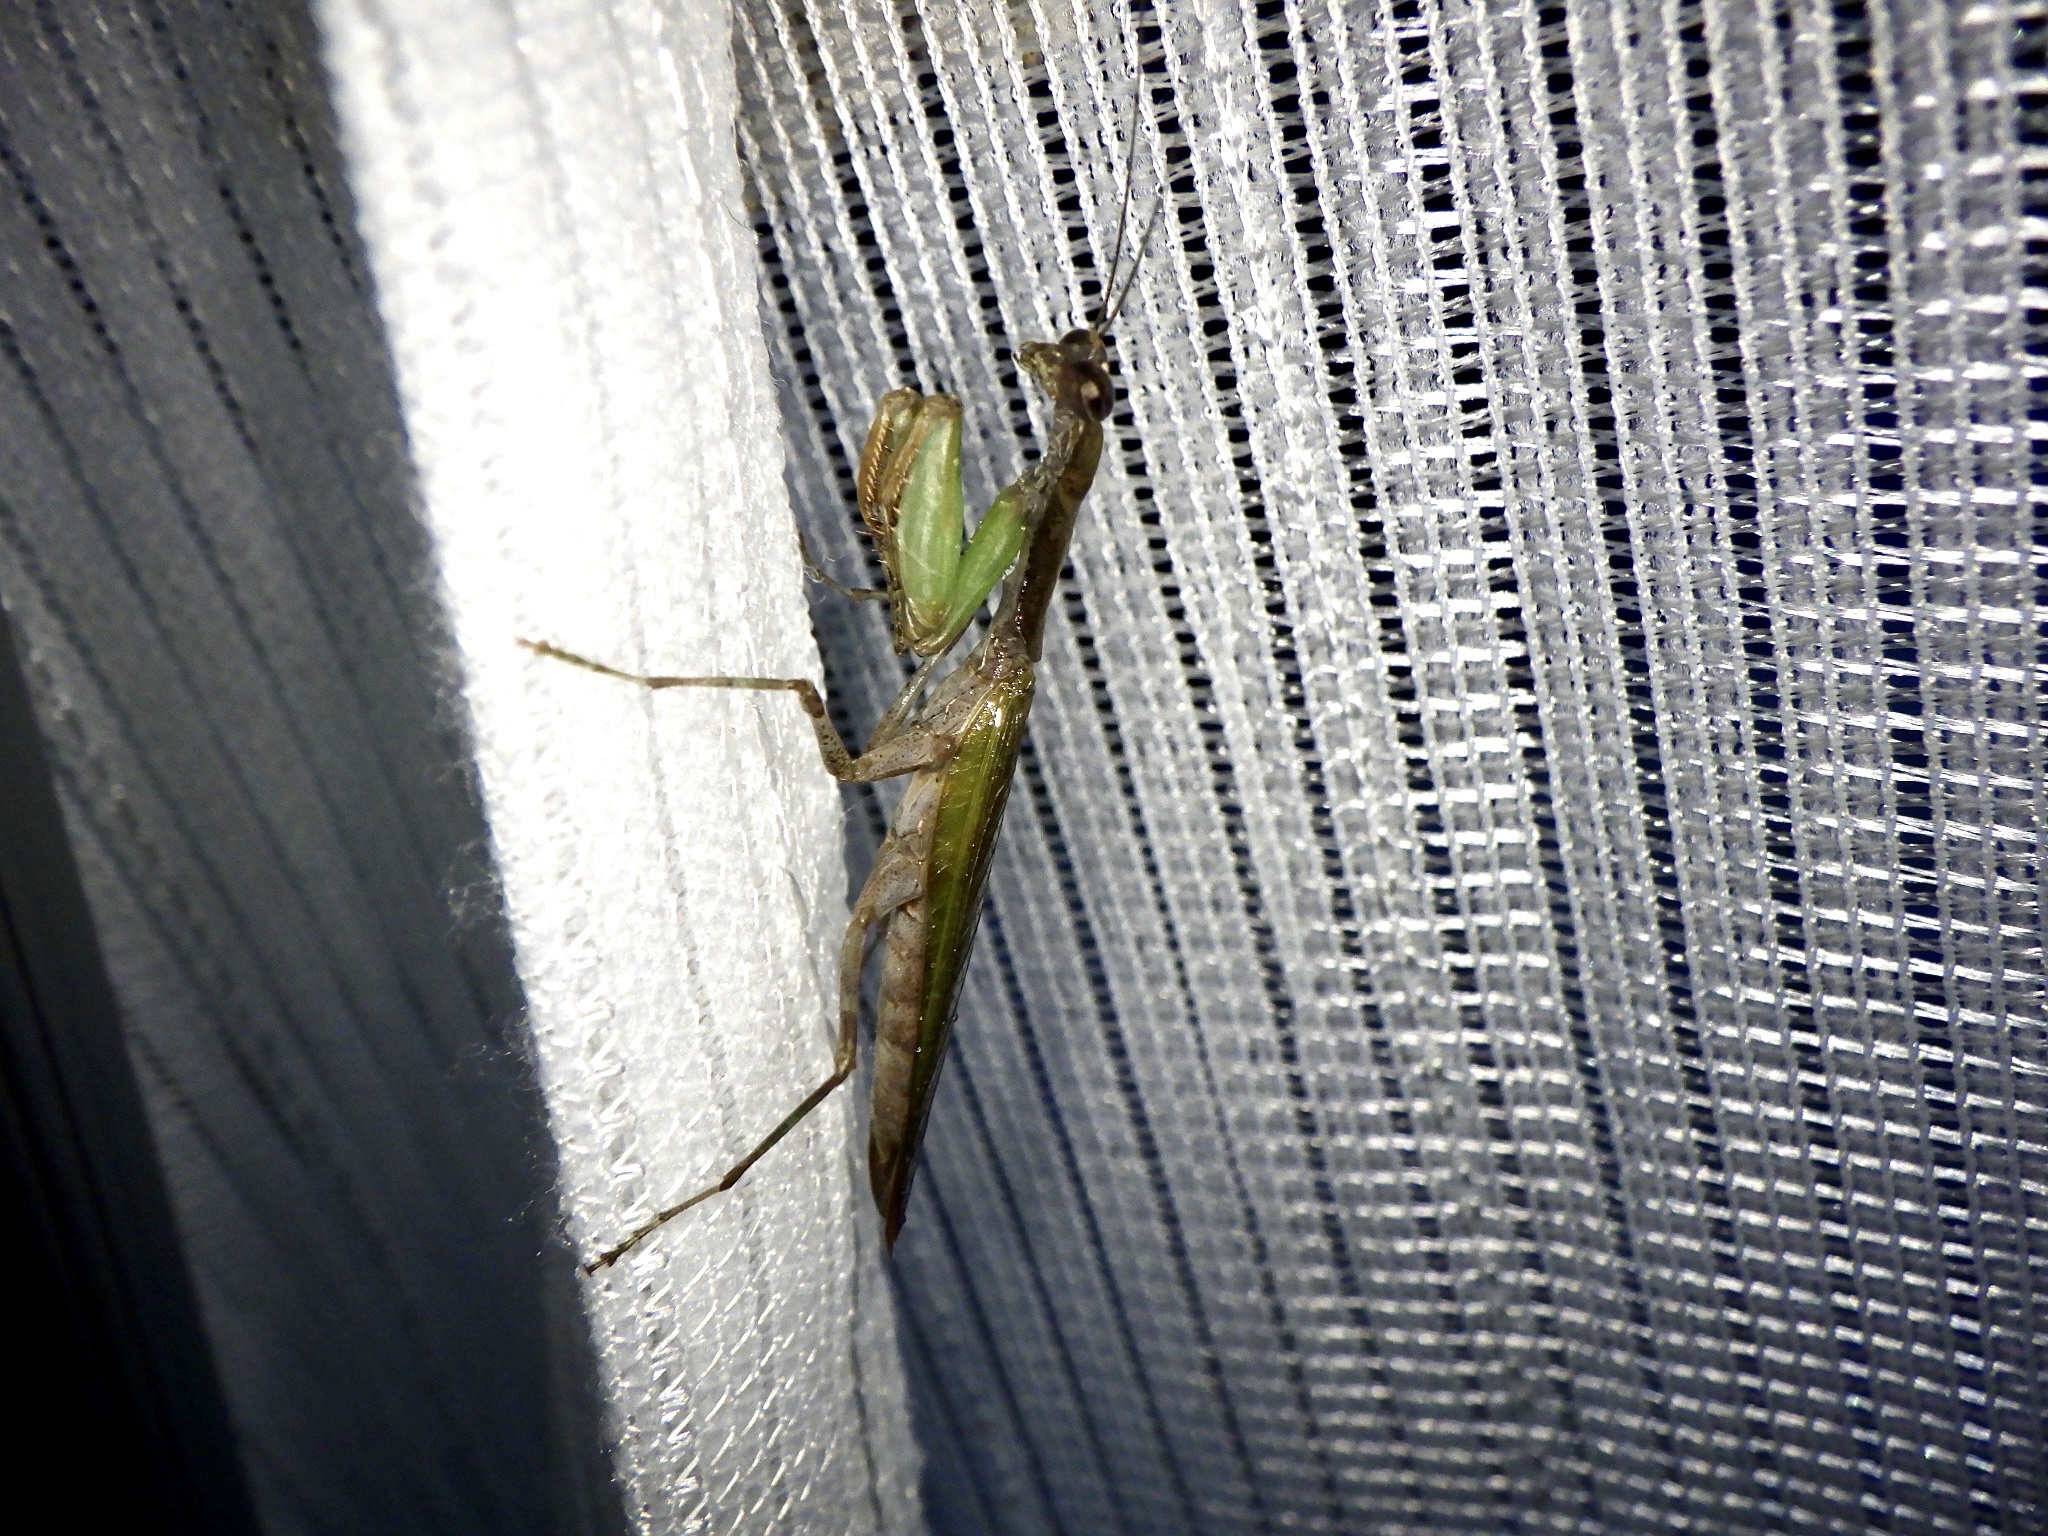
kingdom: Animalia
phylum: Arthropoda
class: Insecta
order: Mantodea
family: Hymenopodidae
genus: Acromantis
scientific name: Acromantis japonica
